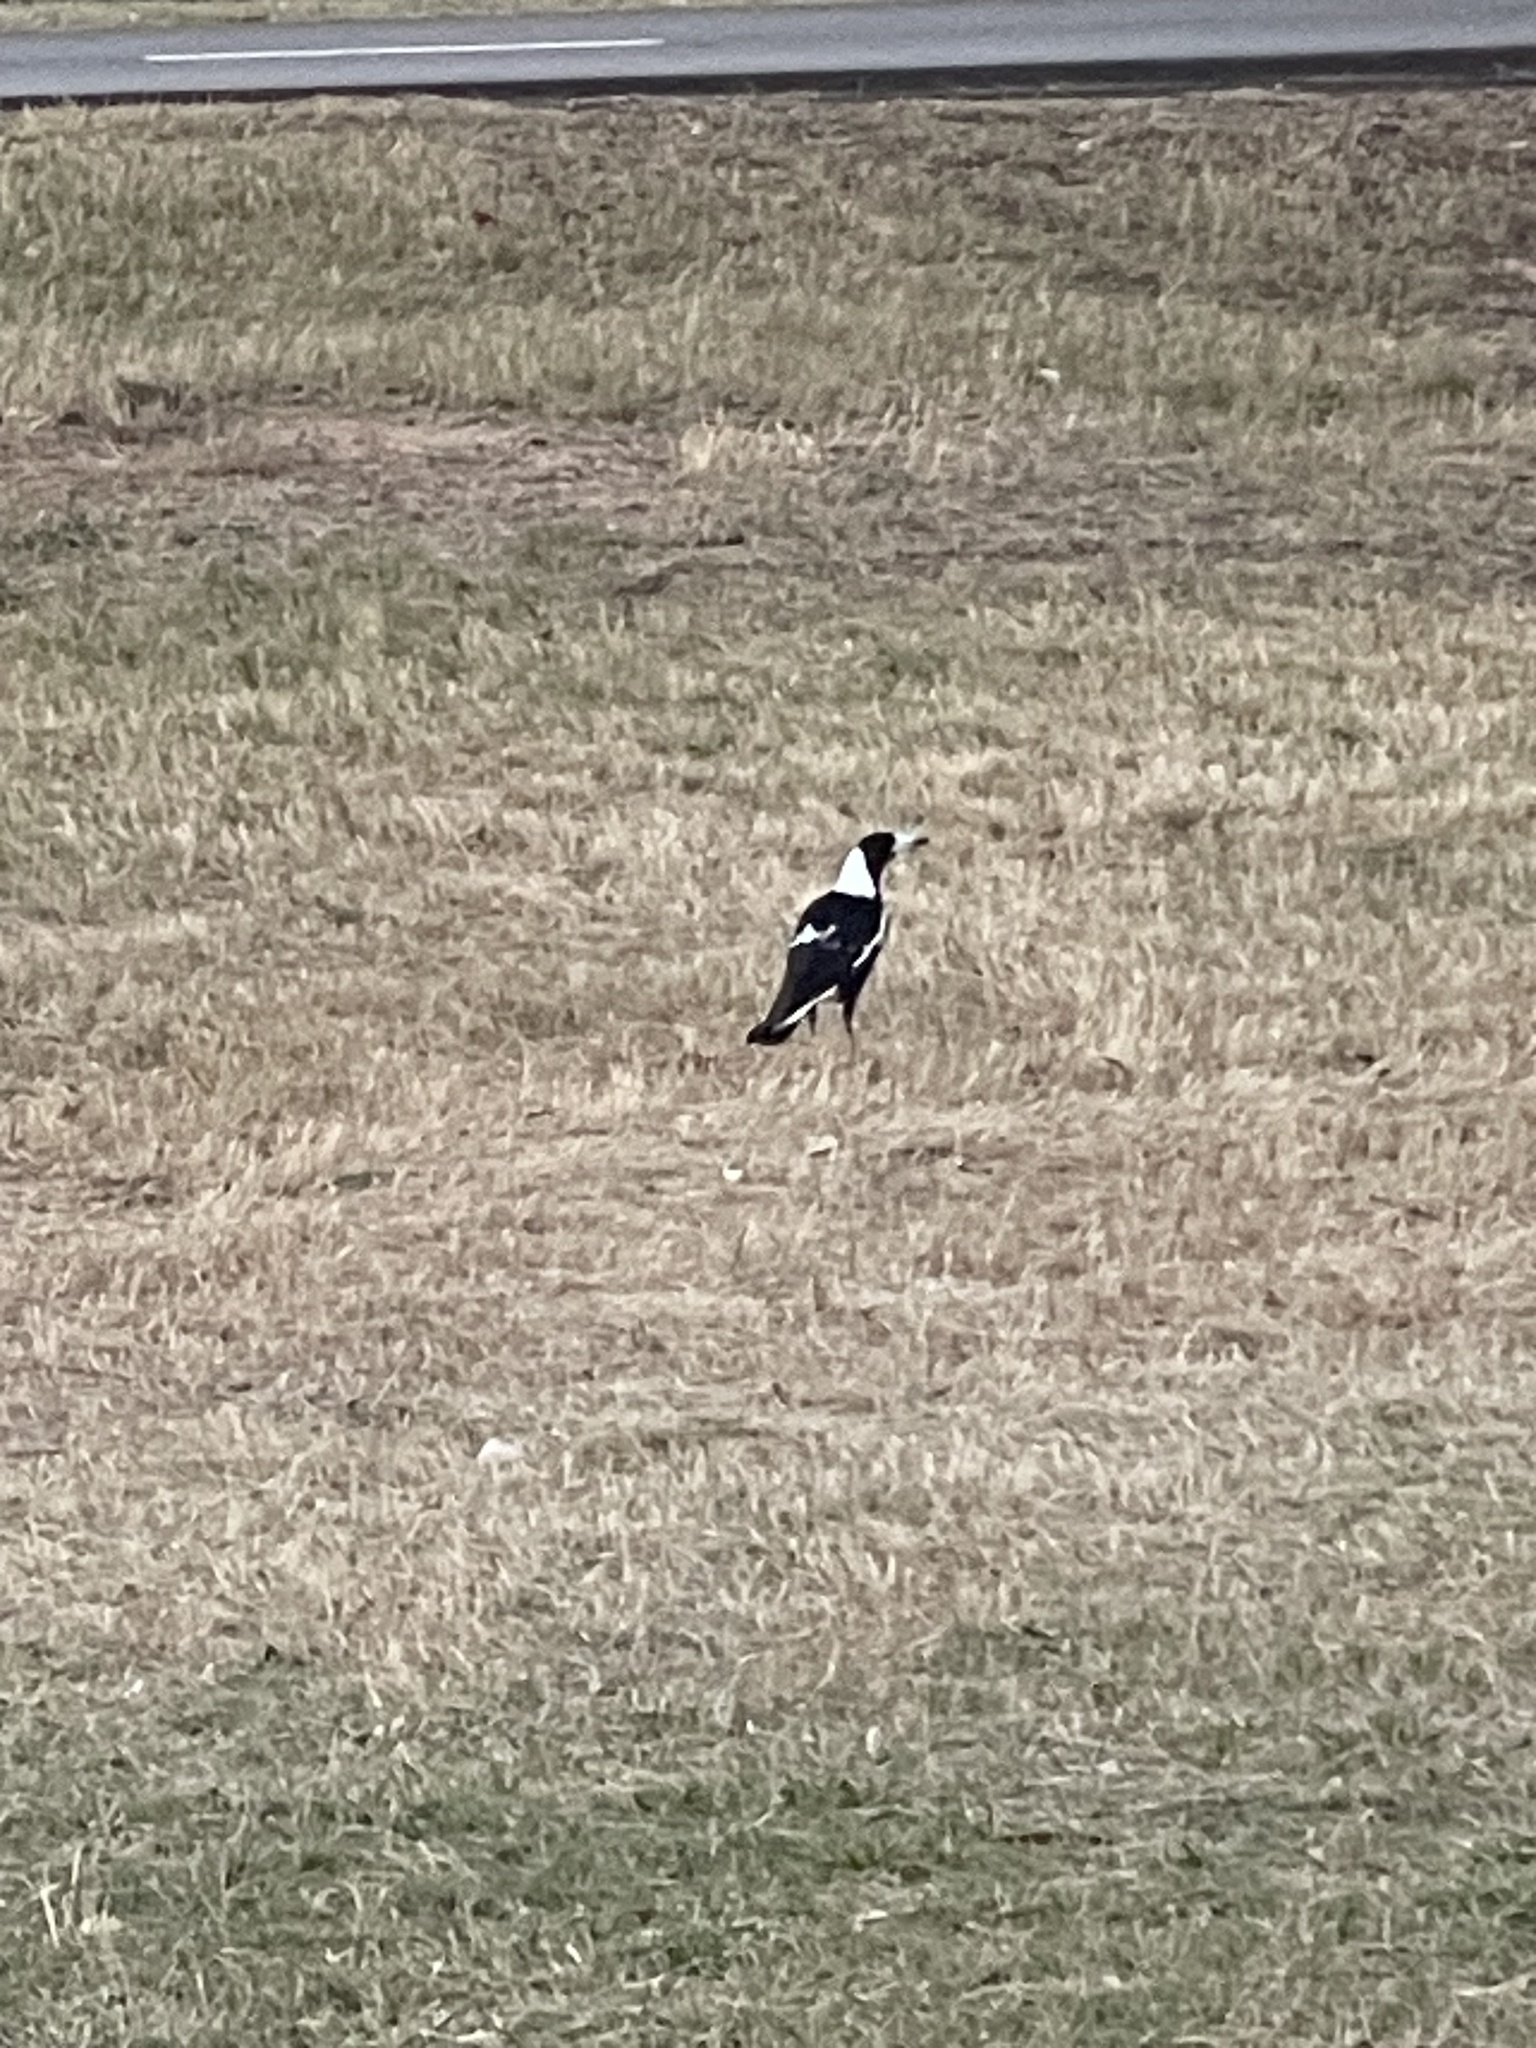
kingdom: Animalia
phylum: Chordata
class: Aves
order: Passeriformes
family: Cracticidae
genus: Gymnorhina
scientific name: Gymnorhina tibicen
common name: Australian magpie
